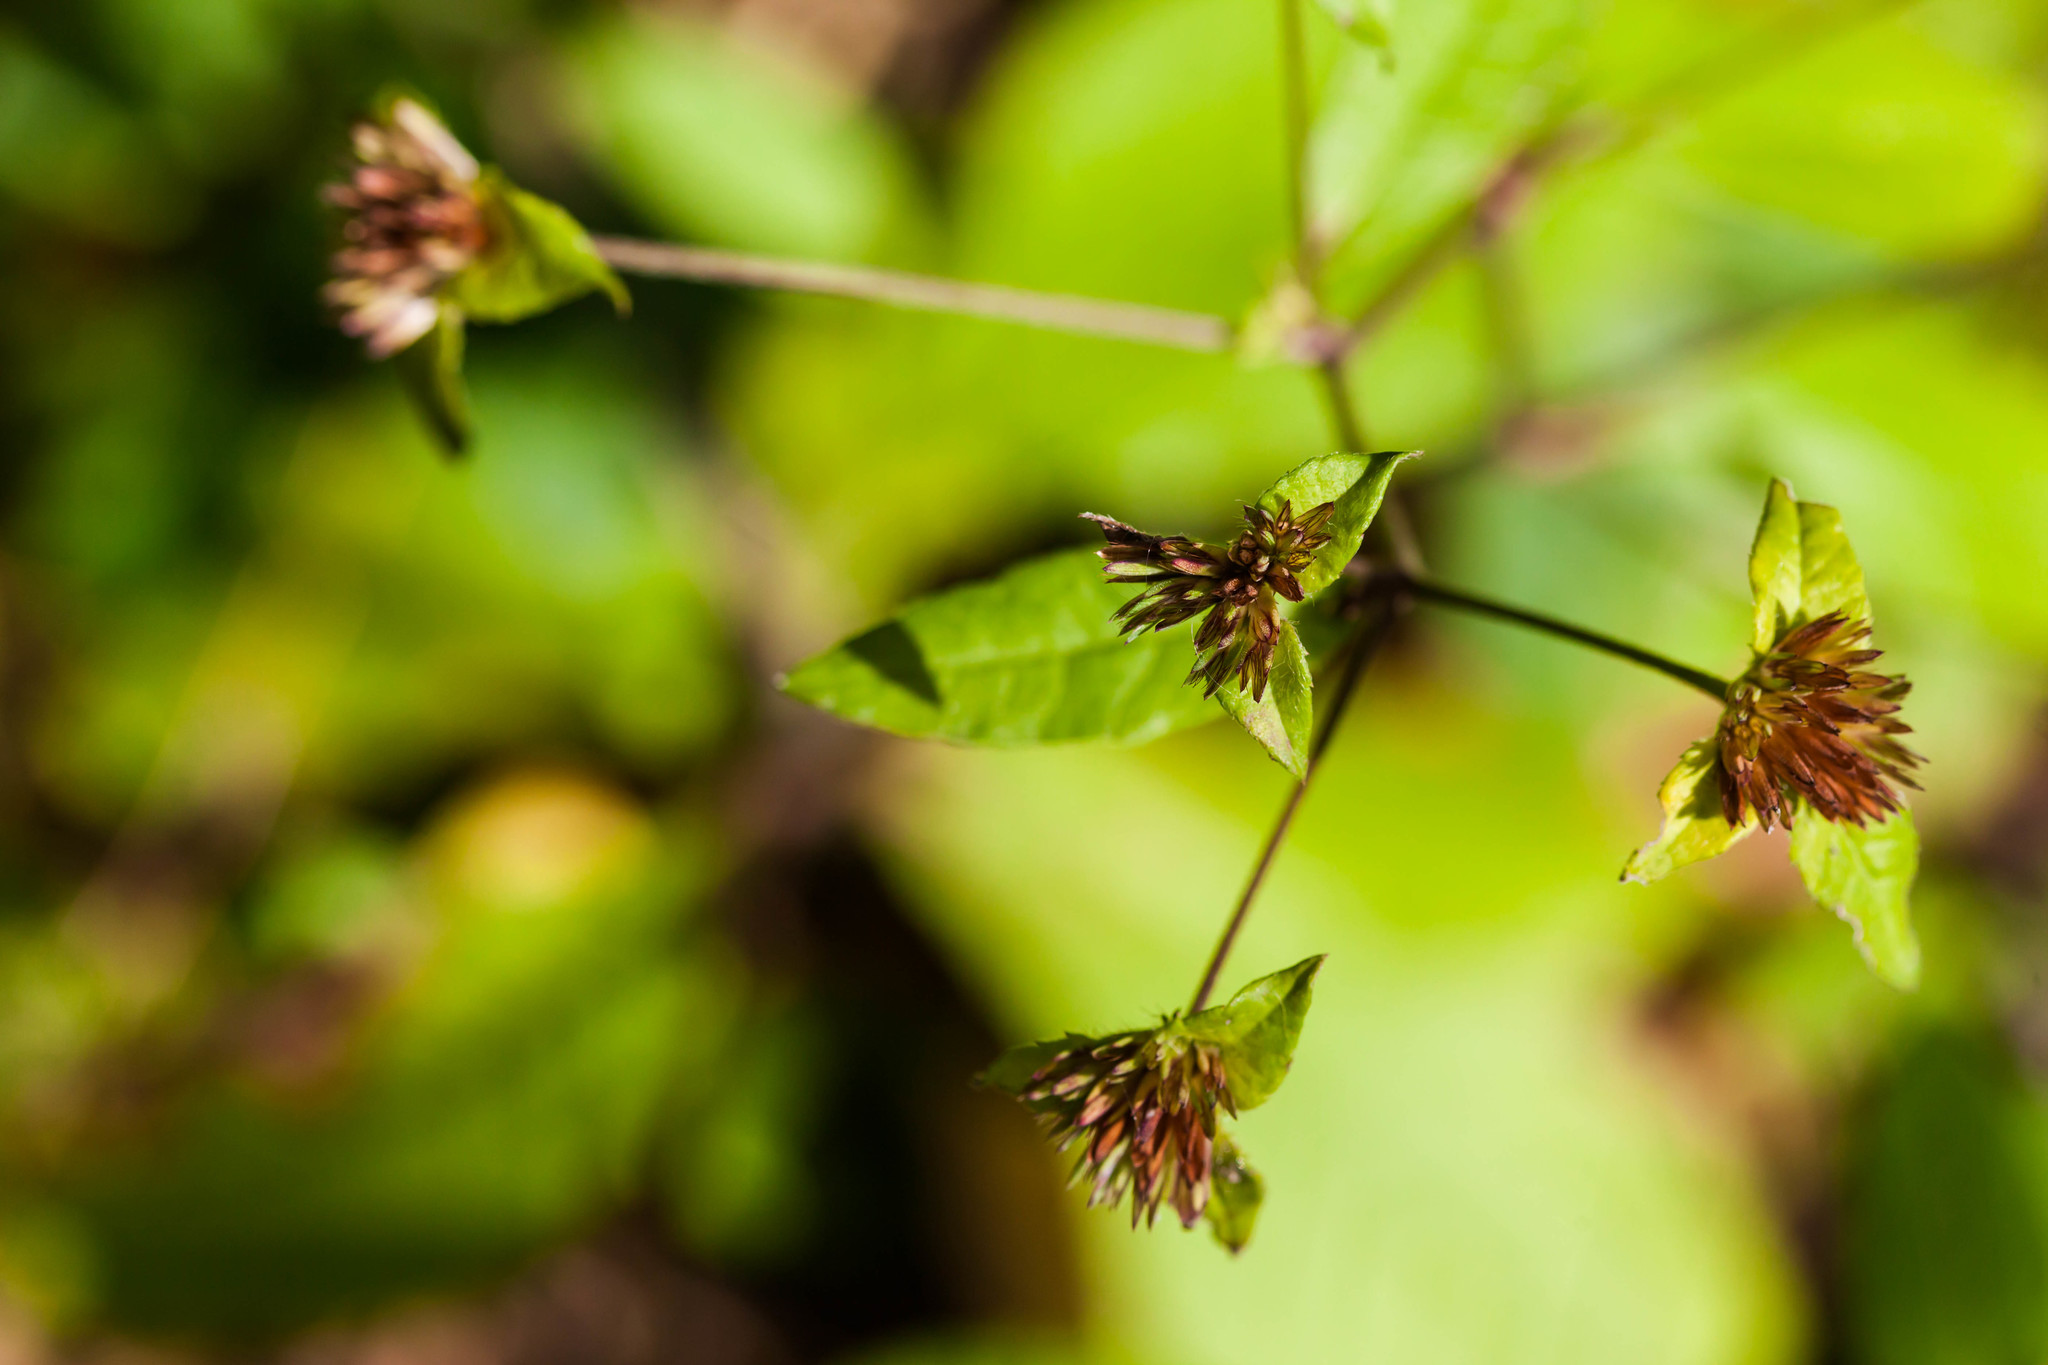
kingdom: Plantae
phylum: Tracheophyta
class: Magnoliopsida
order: Asterales
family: Asteraceae
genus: Elephantopus
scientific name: Elephantopus carolinianus
